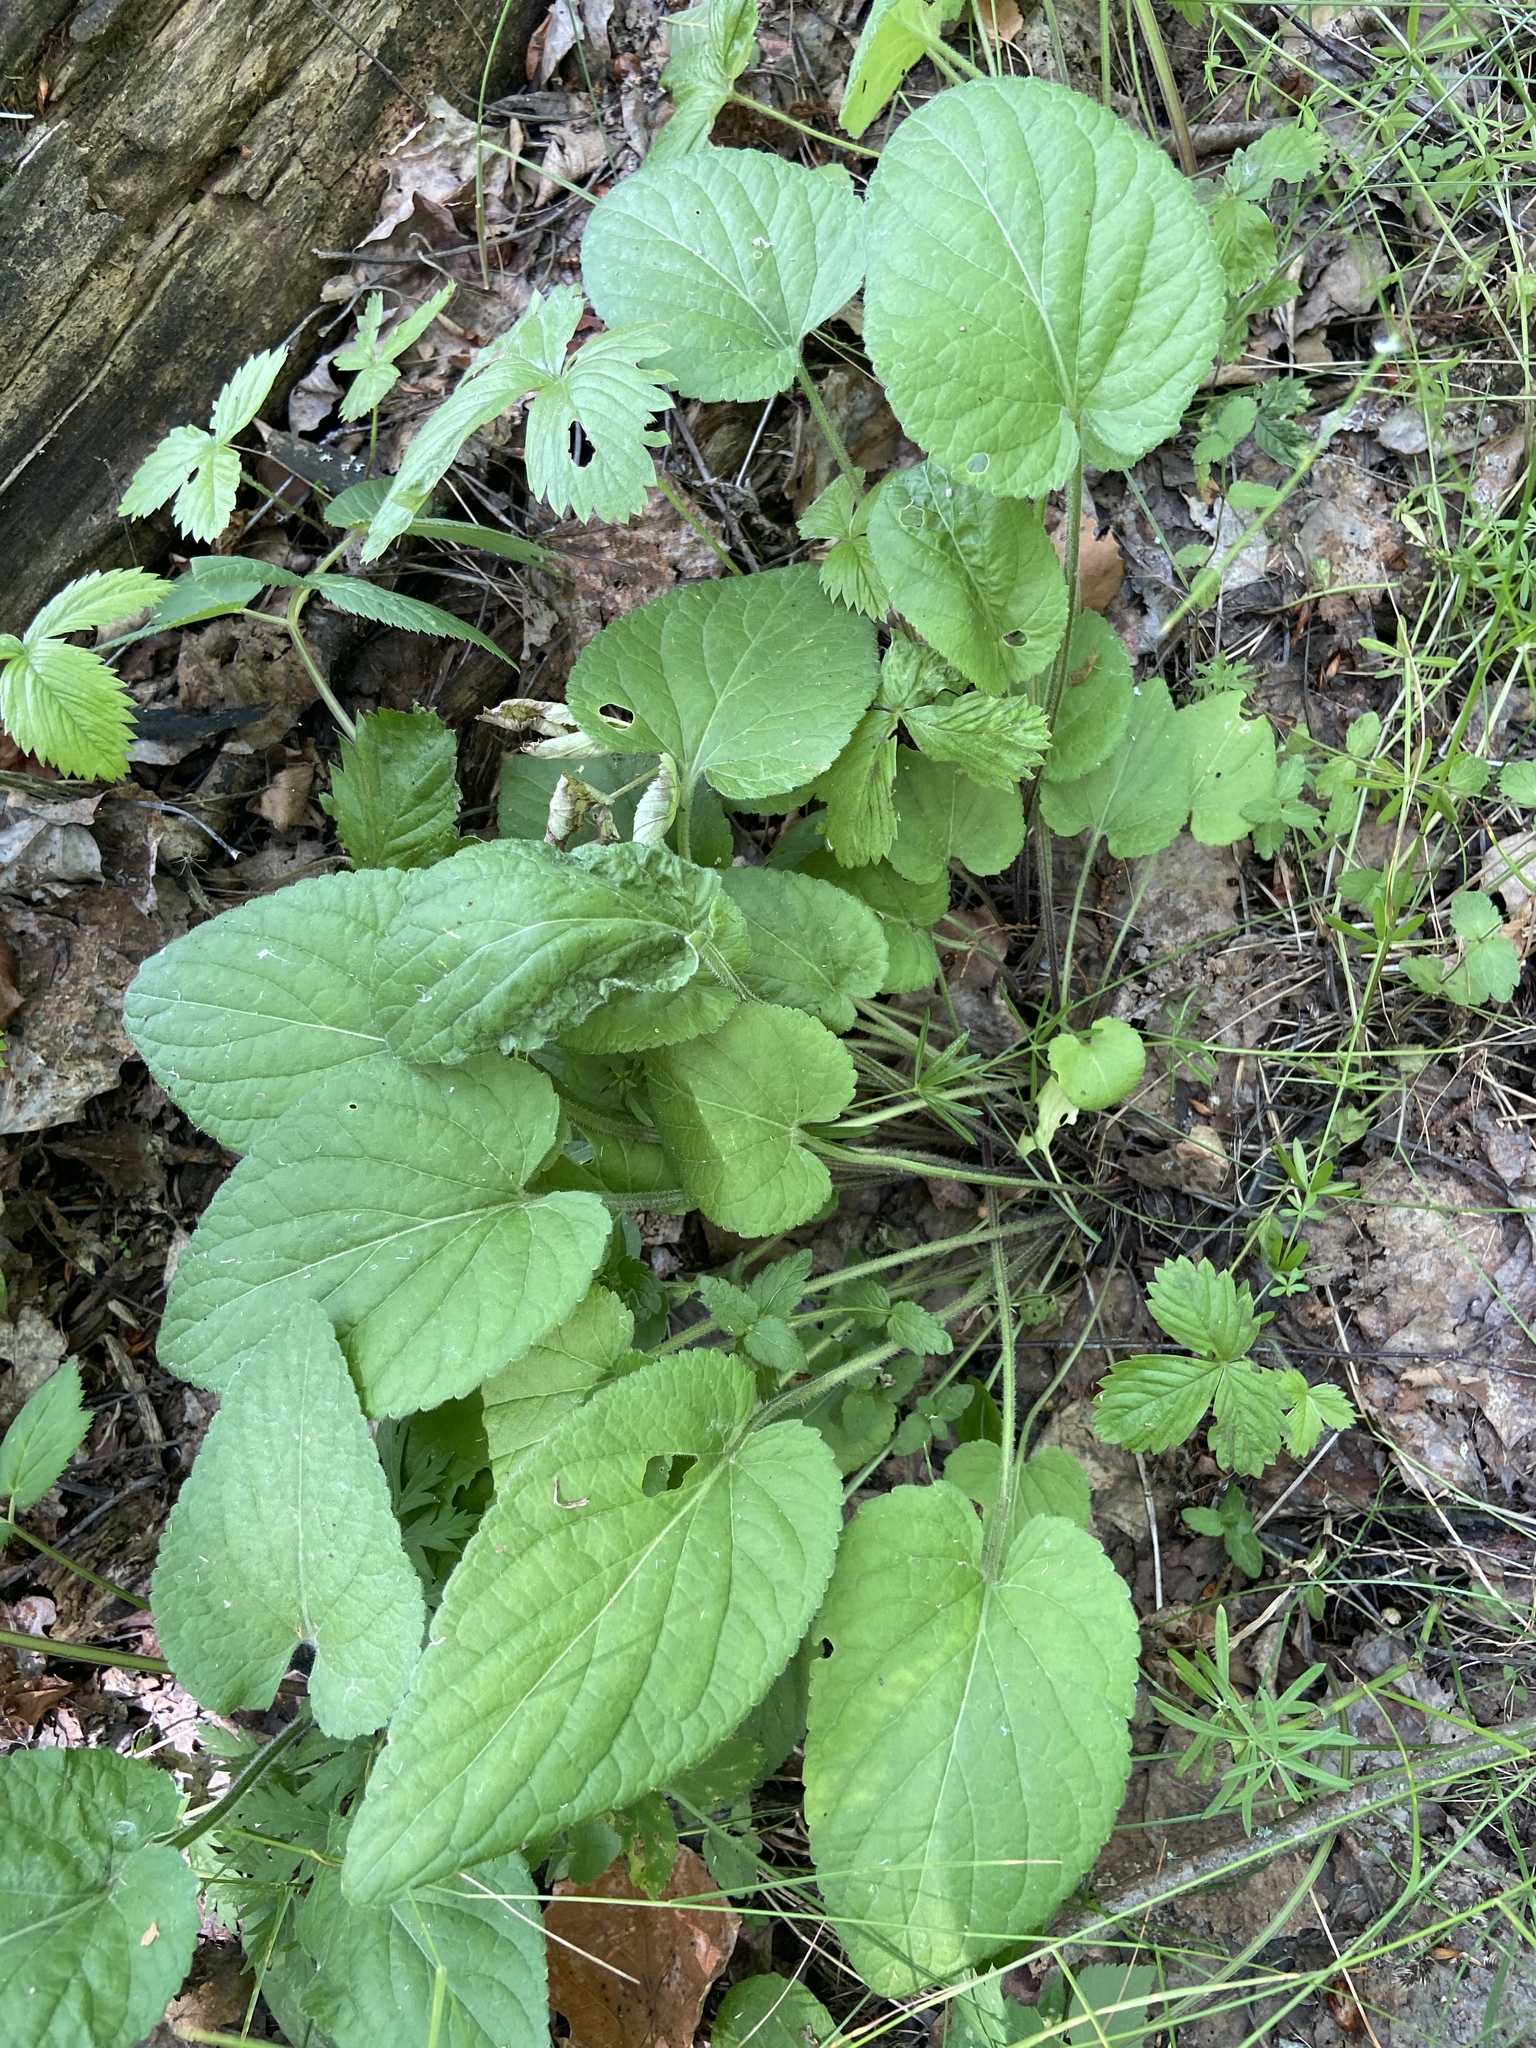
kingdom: Plantae
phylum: Tracheophyta
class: Magnoliopsida
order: Malpighiales
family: Violaceae
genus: Viola
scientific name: Viola hirta
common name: Hairy violet
